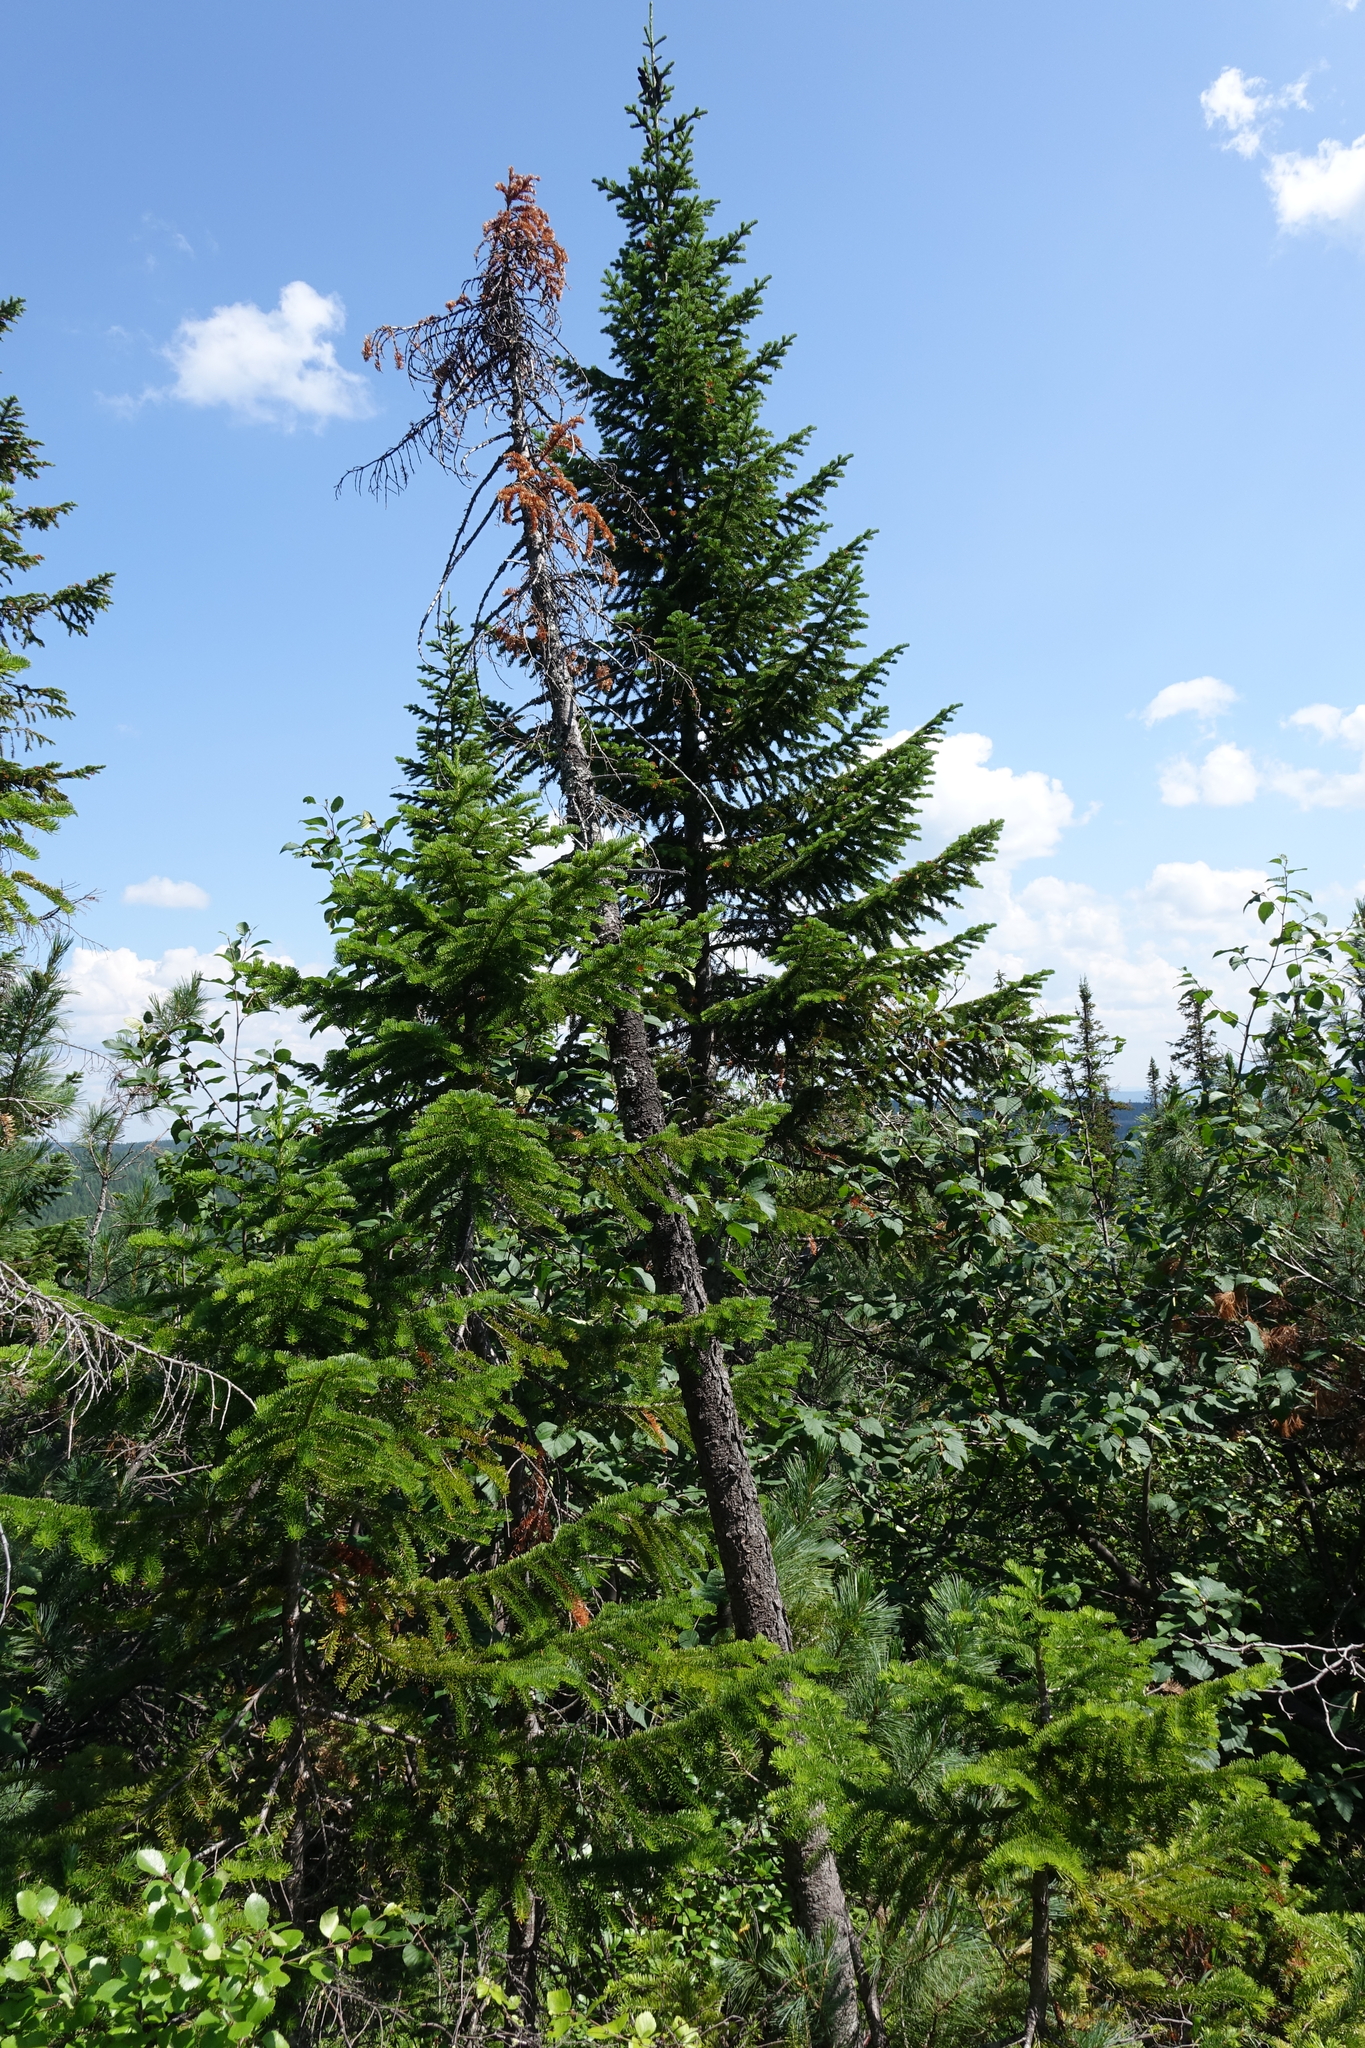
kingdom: Plantae
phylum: Tracheophyta
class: Pinopsida
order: Pinales
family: Pinaceae
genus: Abies
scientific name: Abies sibirica
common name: Siberian fir
